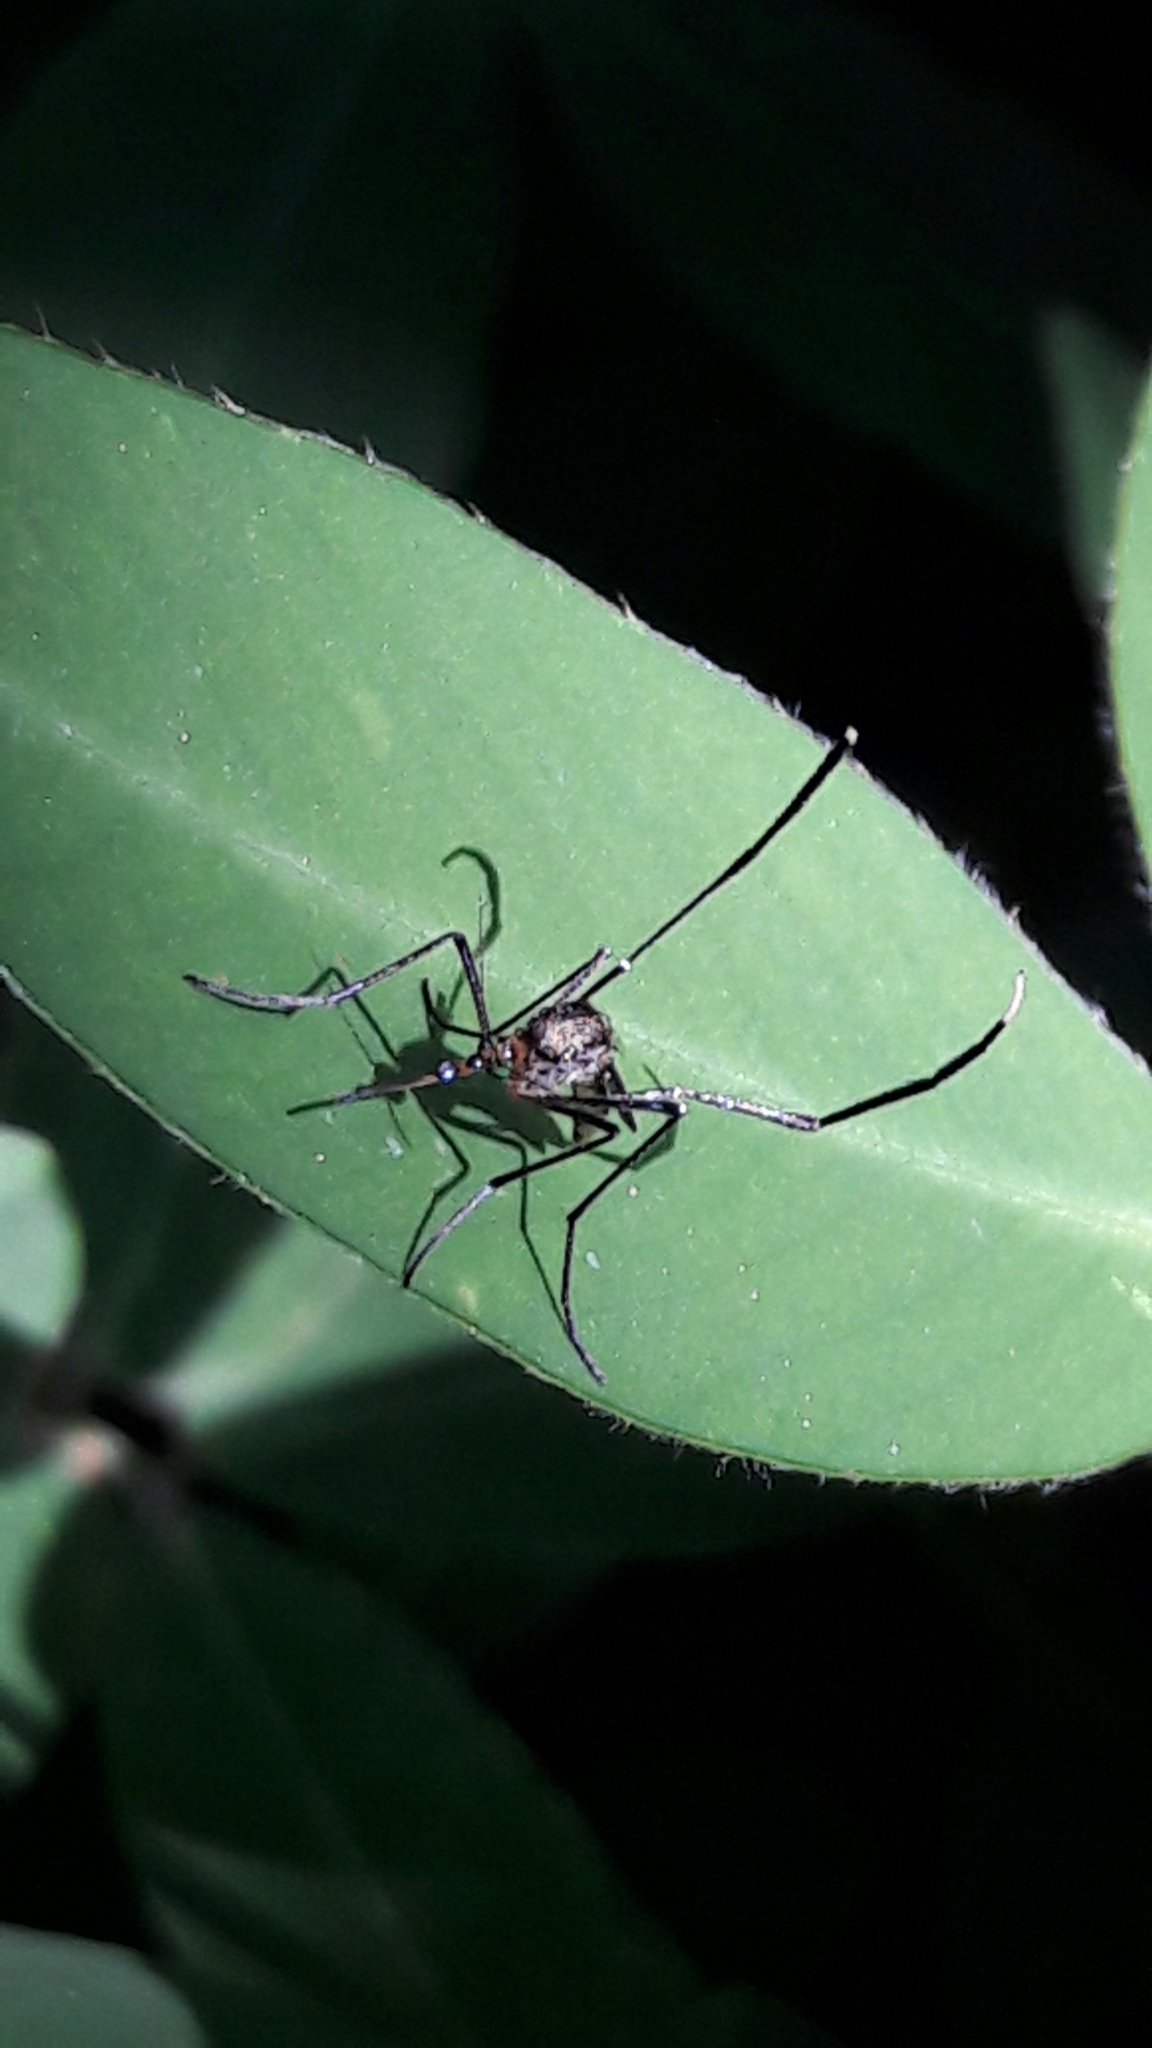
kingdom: Animalia
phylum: Arthropoda
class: Insecta
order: Diptera
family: Culicidae
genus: Psorophora
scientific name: Psorophora ferox
